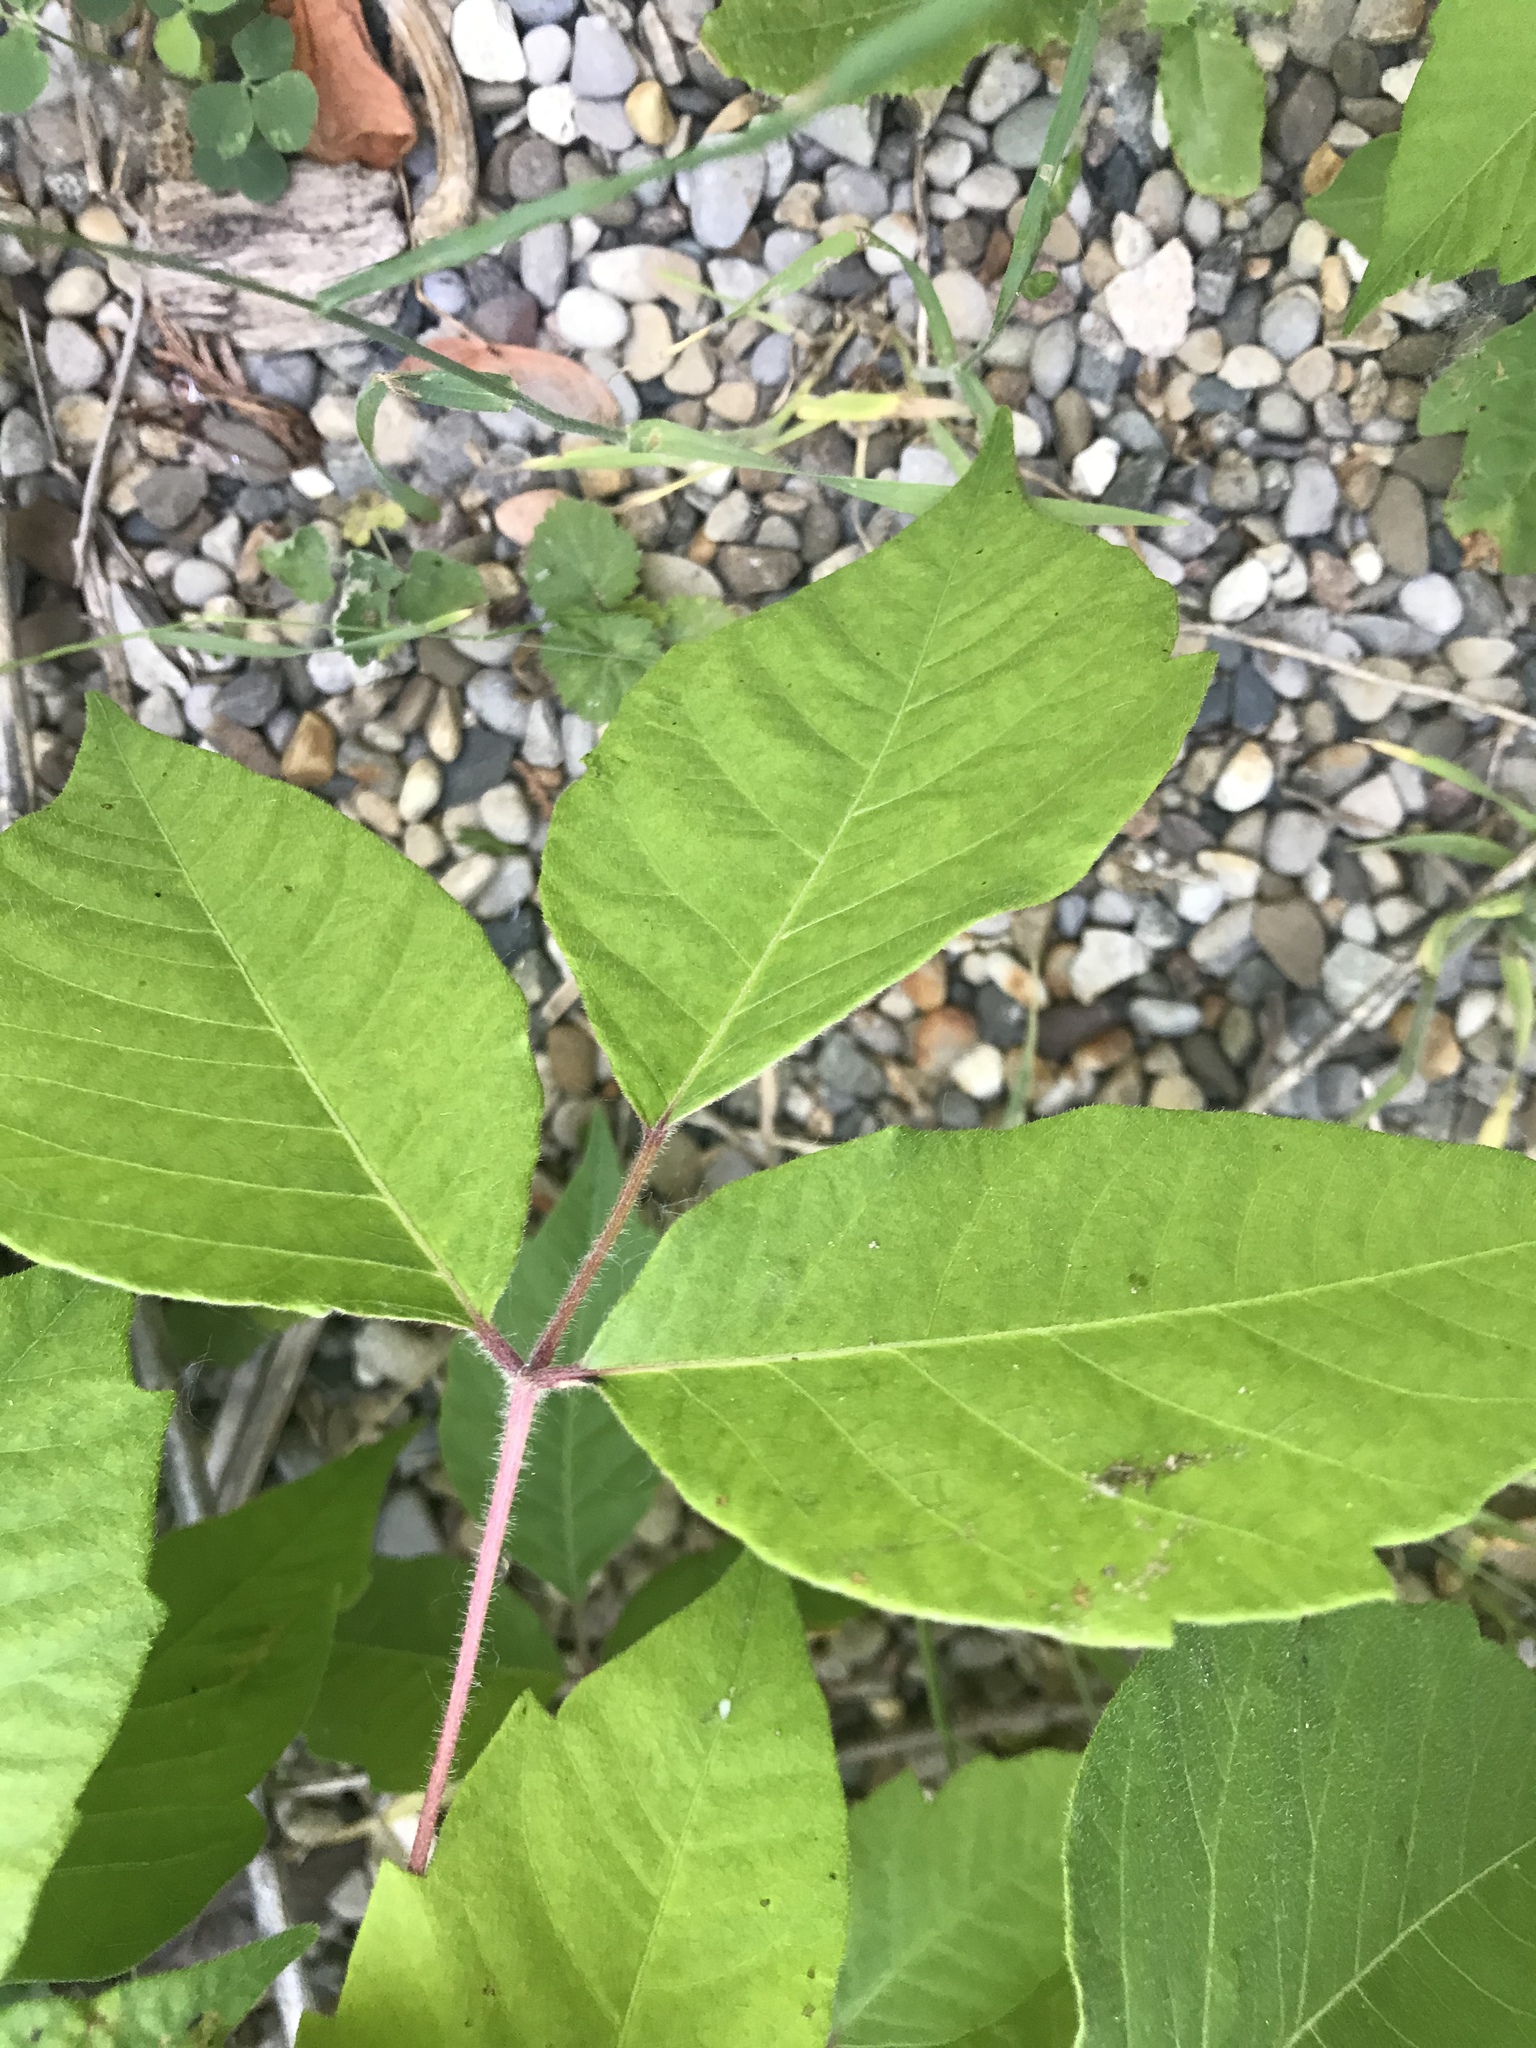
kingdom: Plantae
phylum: Tracheophyta
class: Magnoliopsida
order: Sapindales
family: Anacardiaceae
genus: Toxicodendron
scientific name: Toxicodendron radicans
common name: Poison ivy
